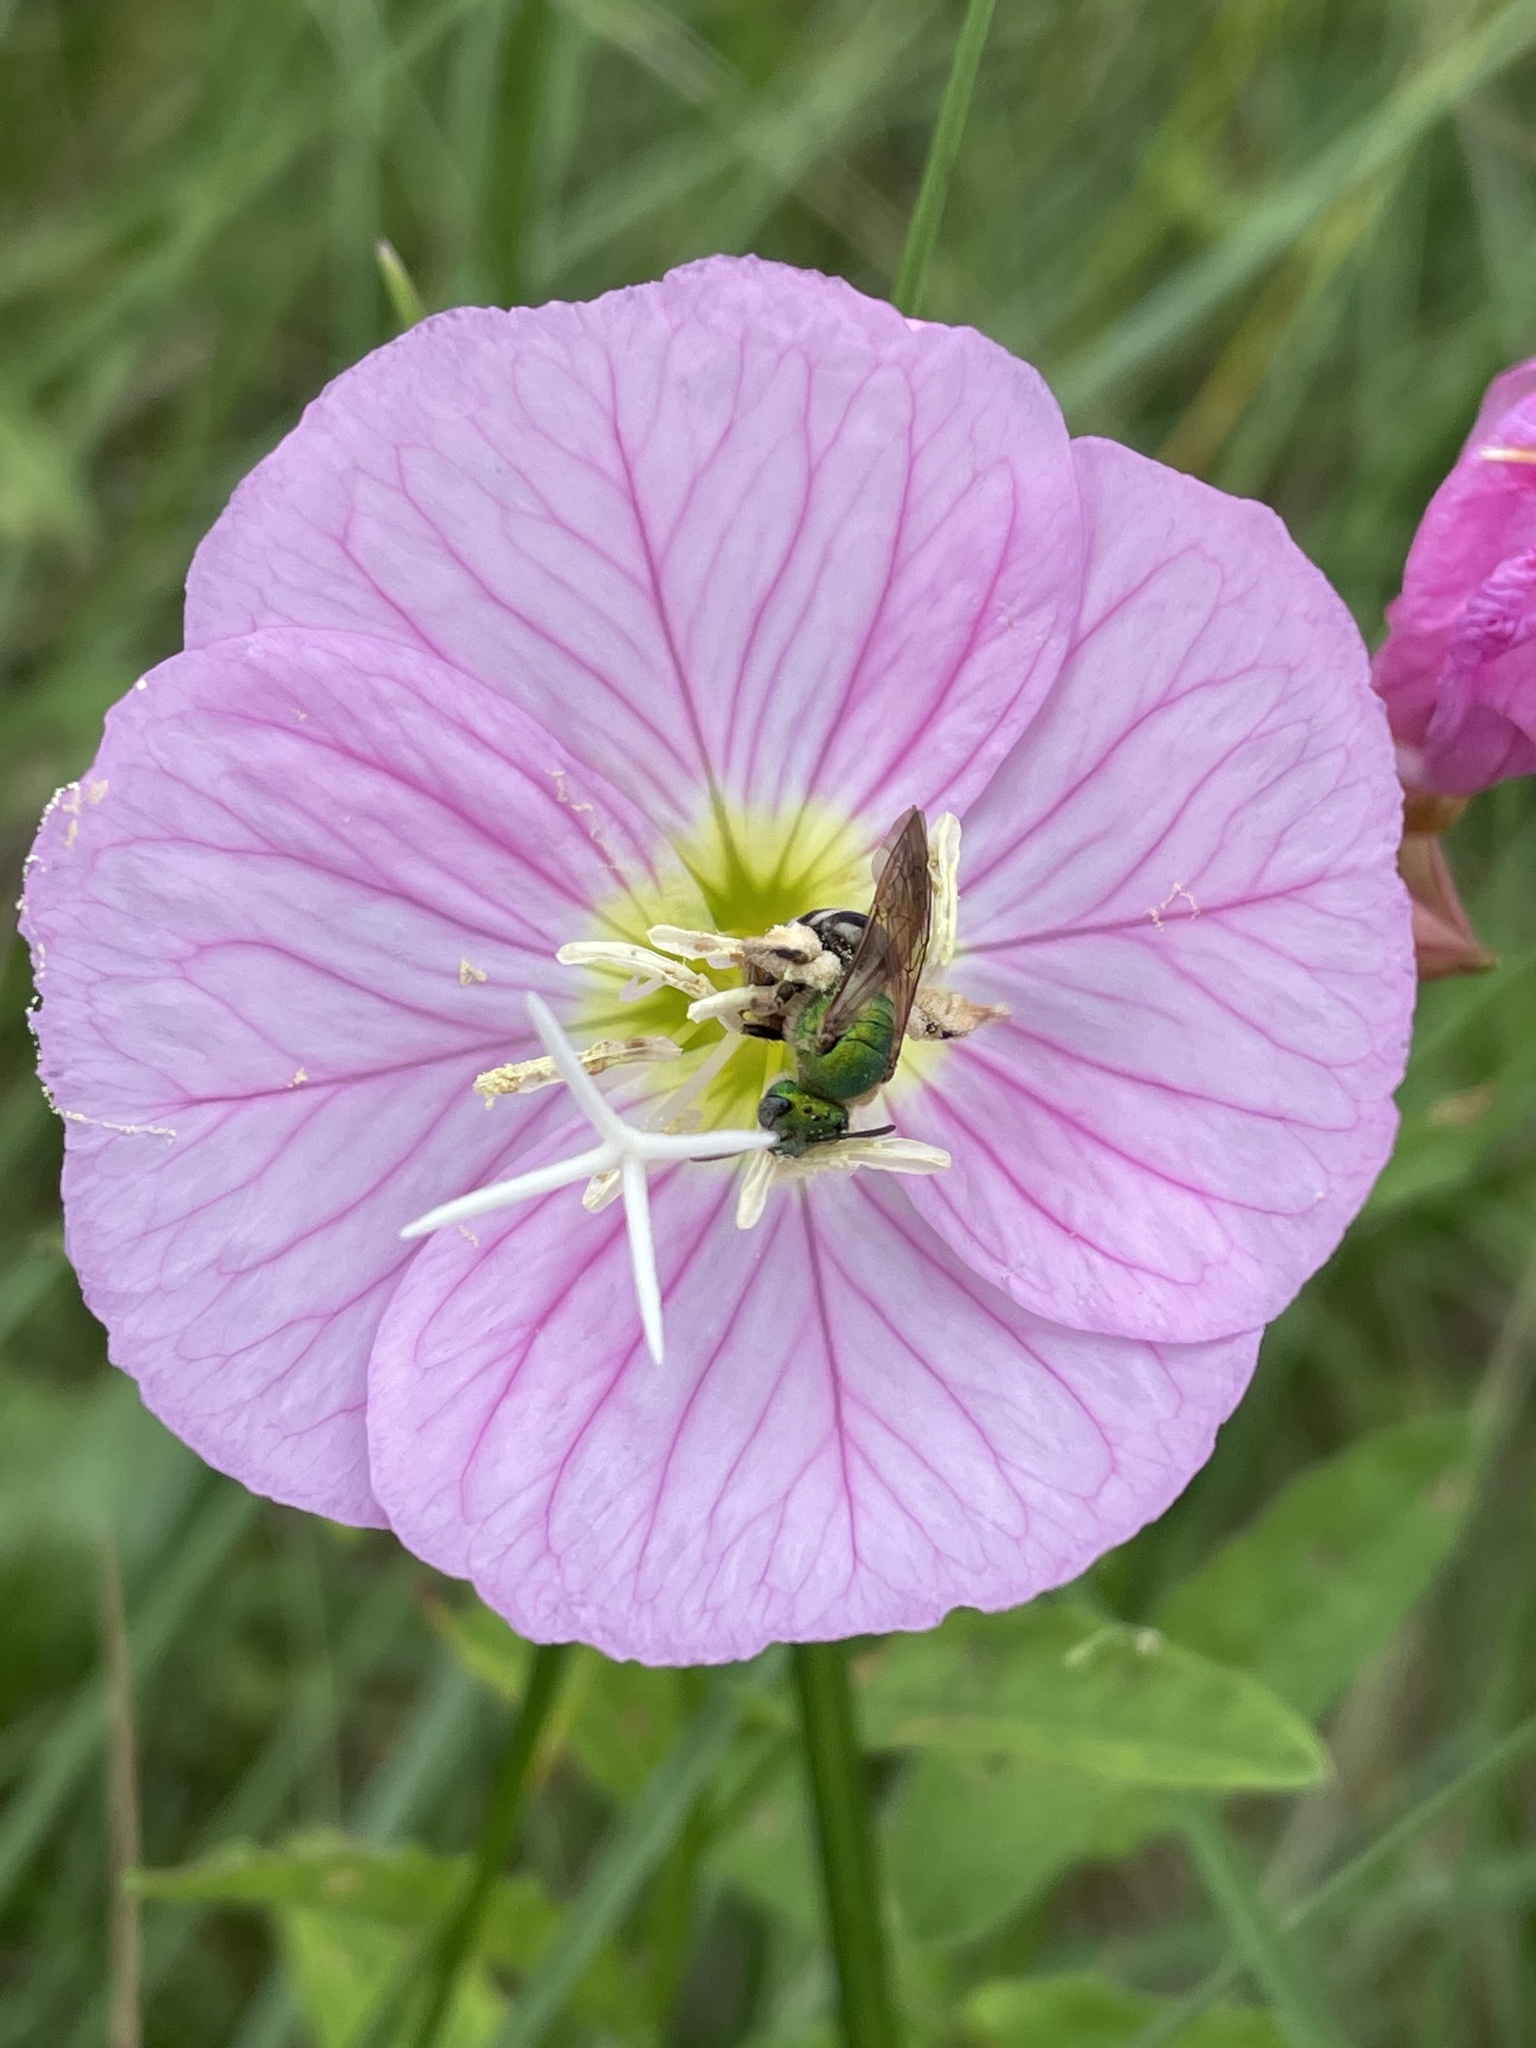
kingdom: Plantae
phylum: Tracheophyta
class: Magnoliopsida
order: Myrtales
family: Onagraceae
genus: Oenothera
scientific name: Oenothera speciosa
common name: White evening-primrose
